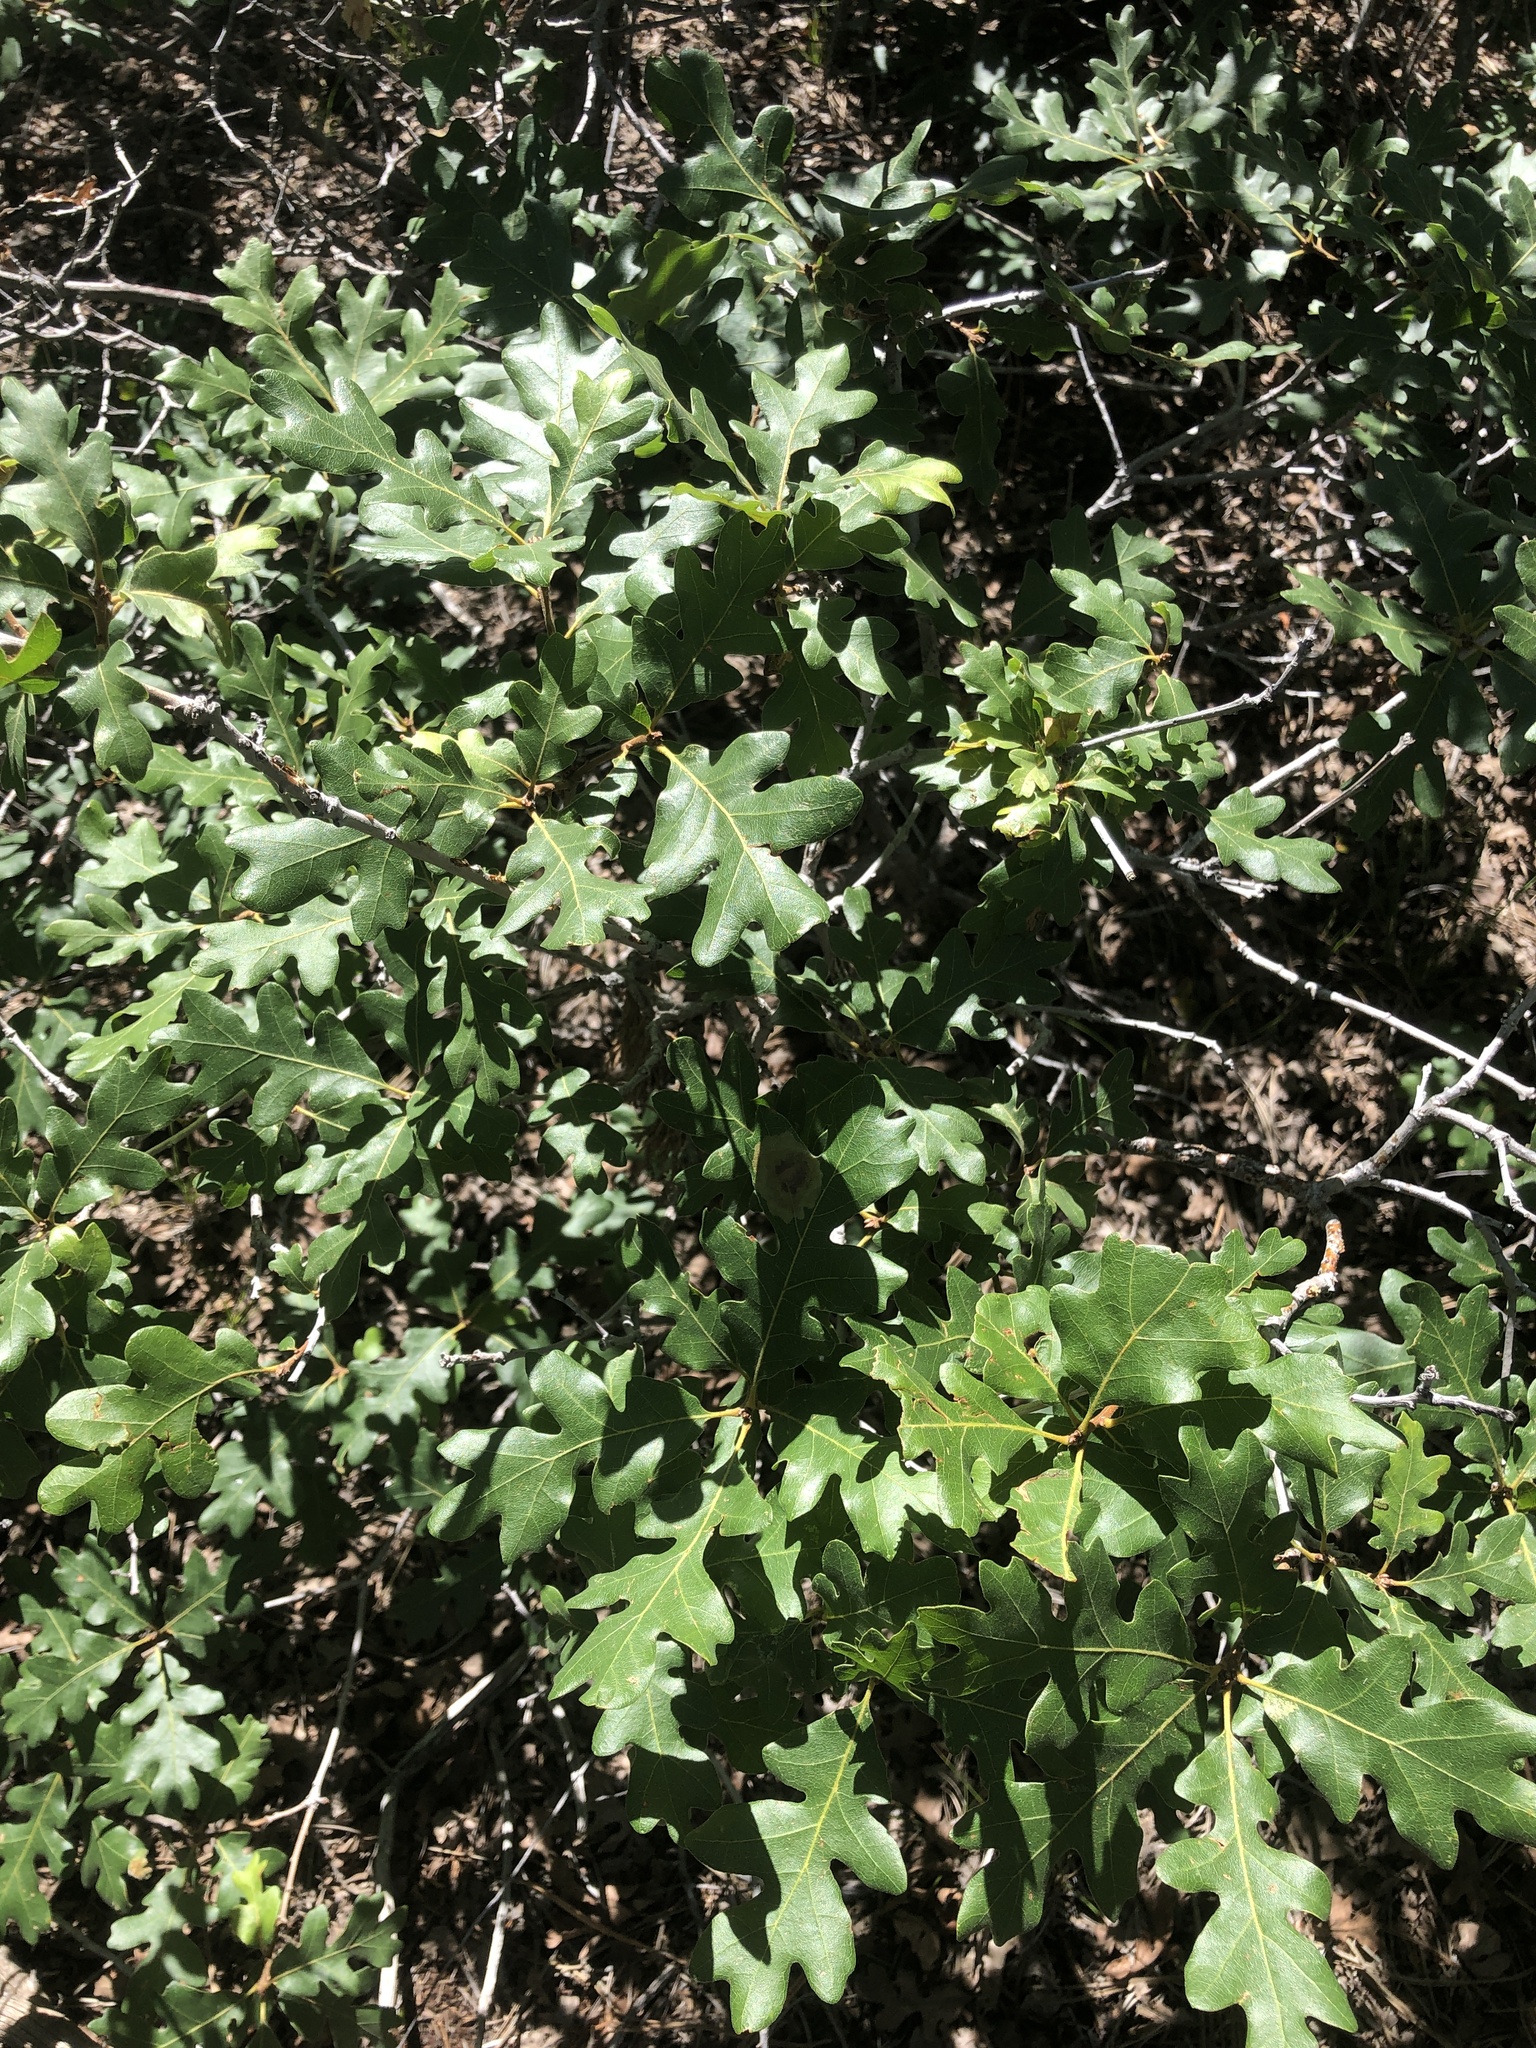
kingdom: Plantae
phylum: Tracheophyta
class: Magnoliopsida
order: Fagales
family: Fagaceae
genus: Quercus
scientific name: Quercus gambelii
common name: Gambel oak
